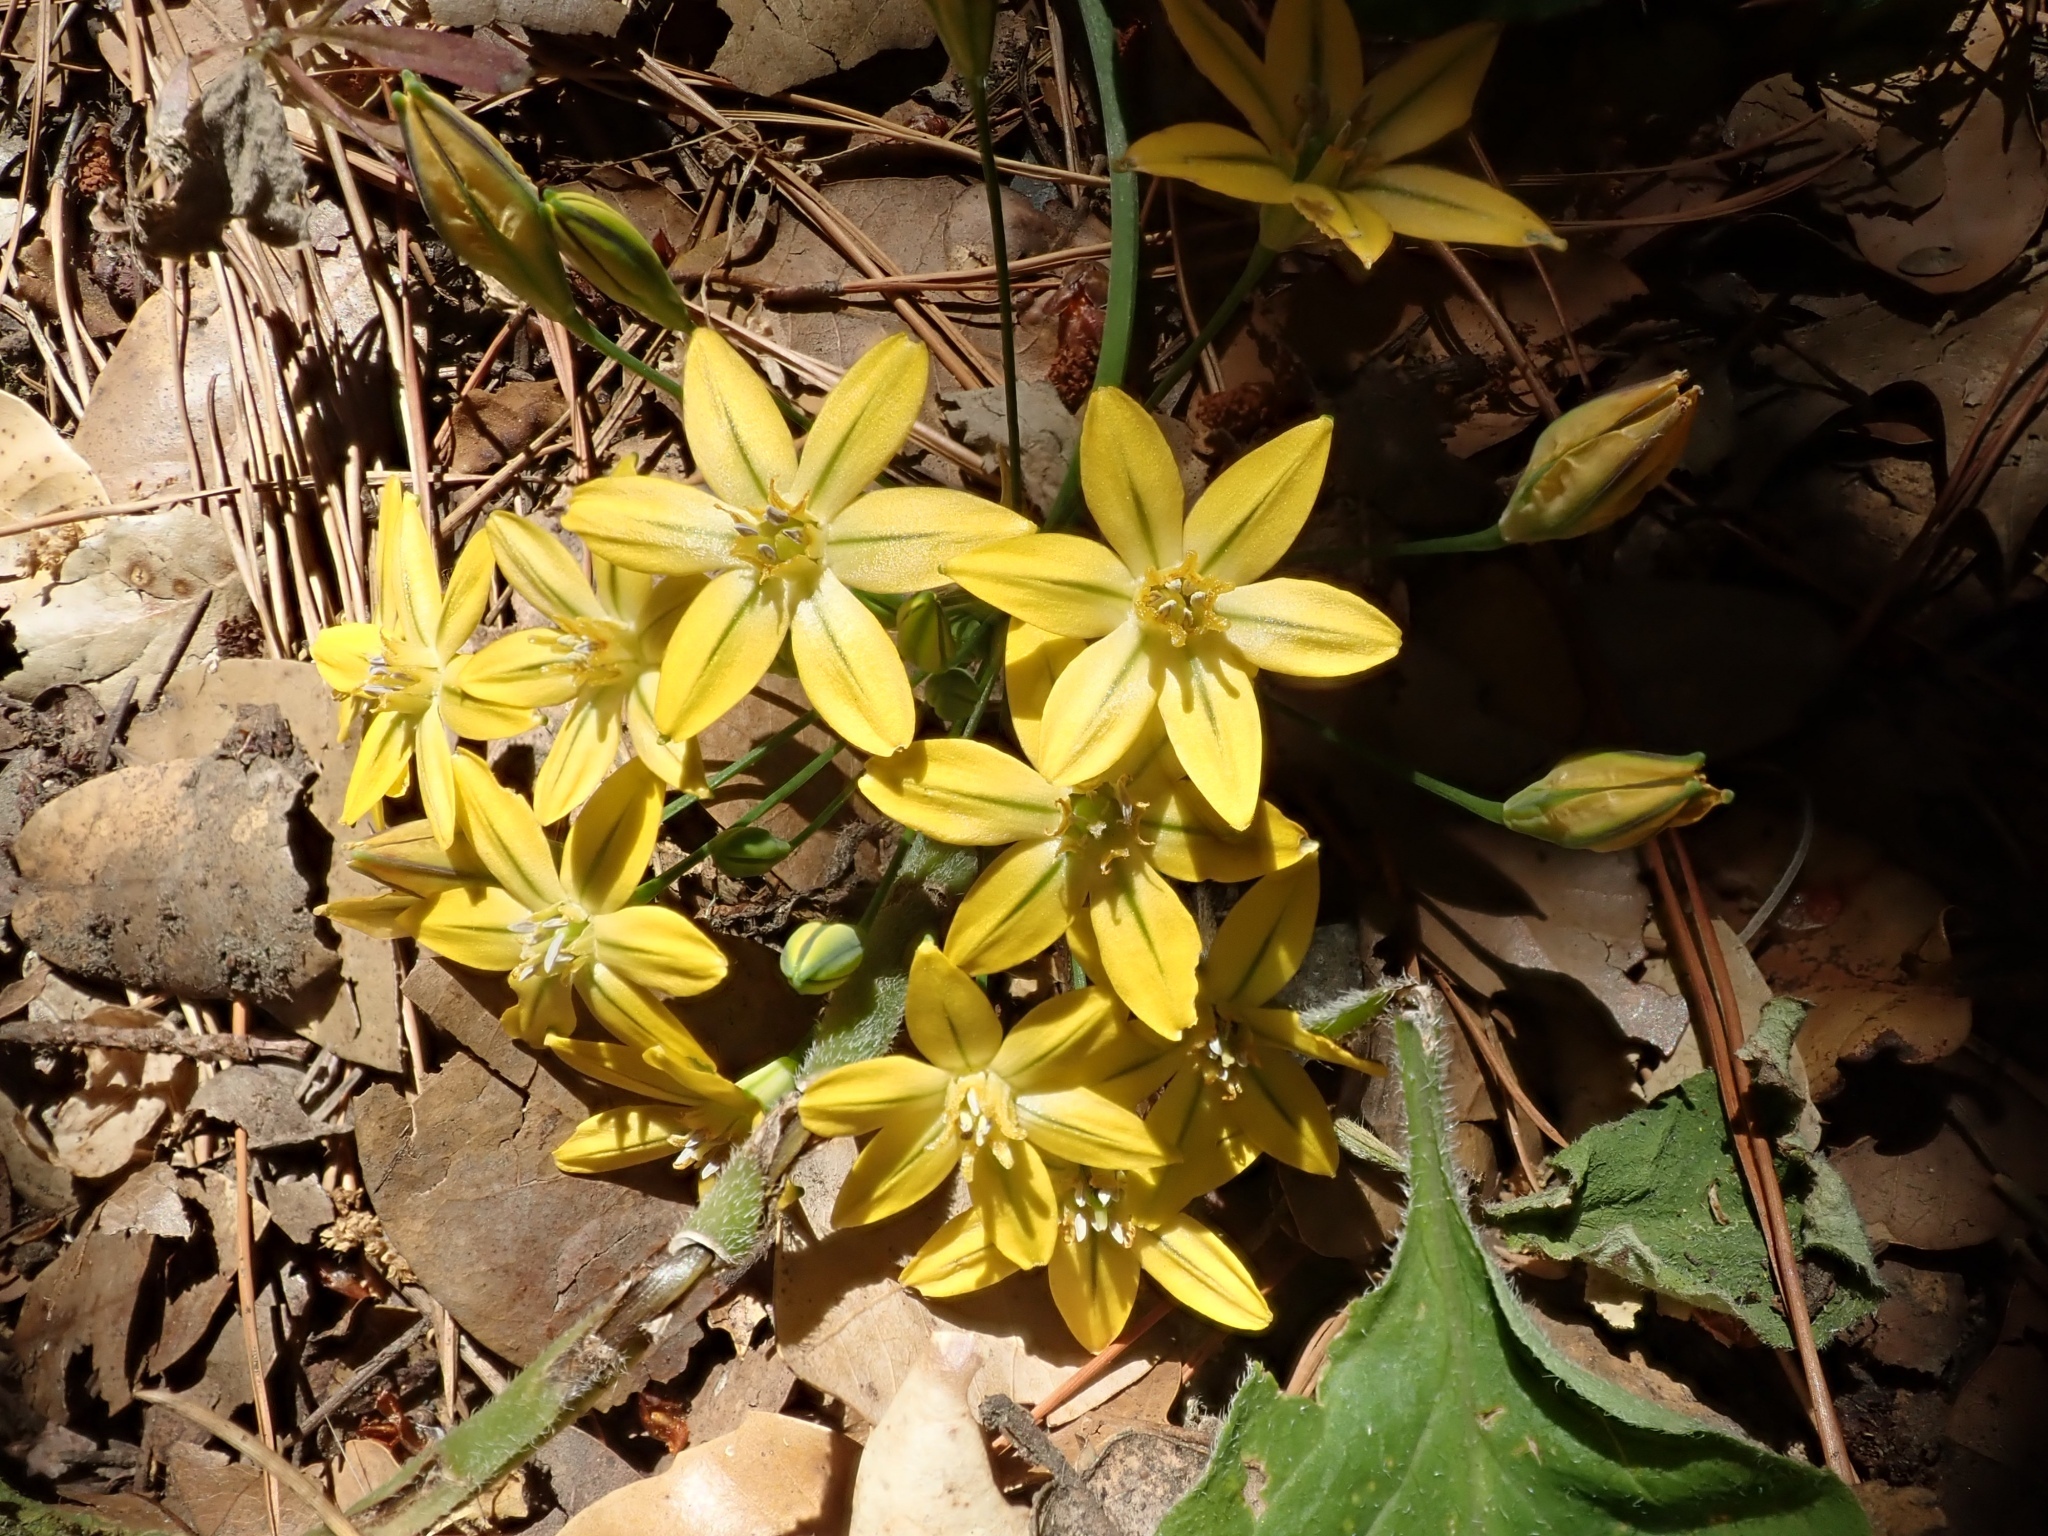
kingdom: Plantae
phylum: Tracheophyta
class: Liliopsida
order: Asparagales
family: Asparagaceae
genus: Triteleia
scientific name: Triteleia ixioides
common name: Yellow-brodiaea
